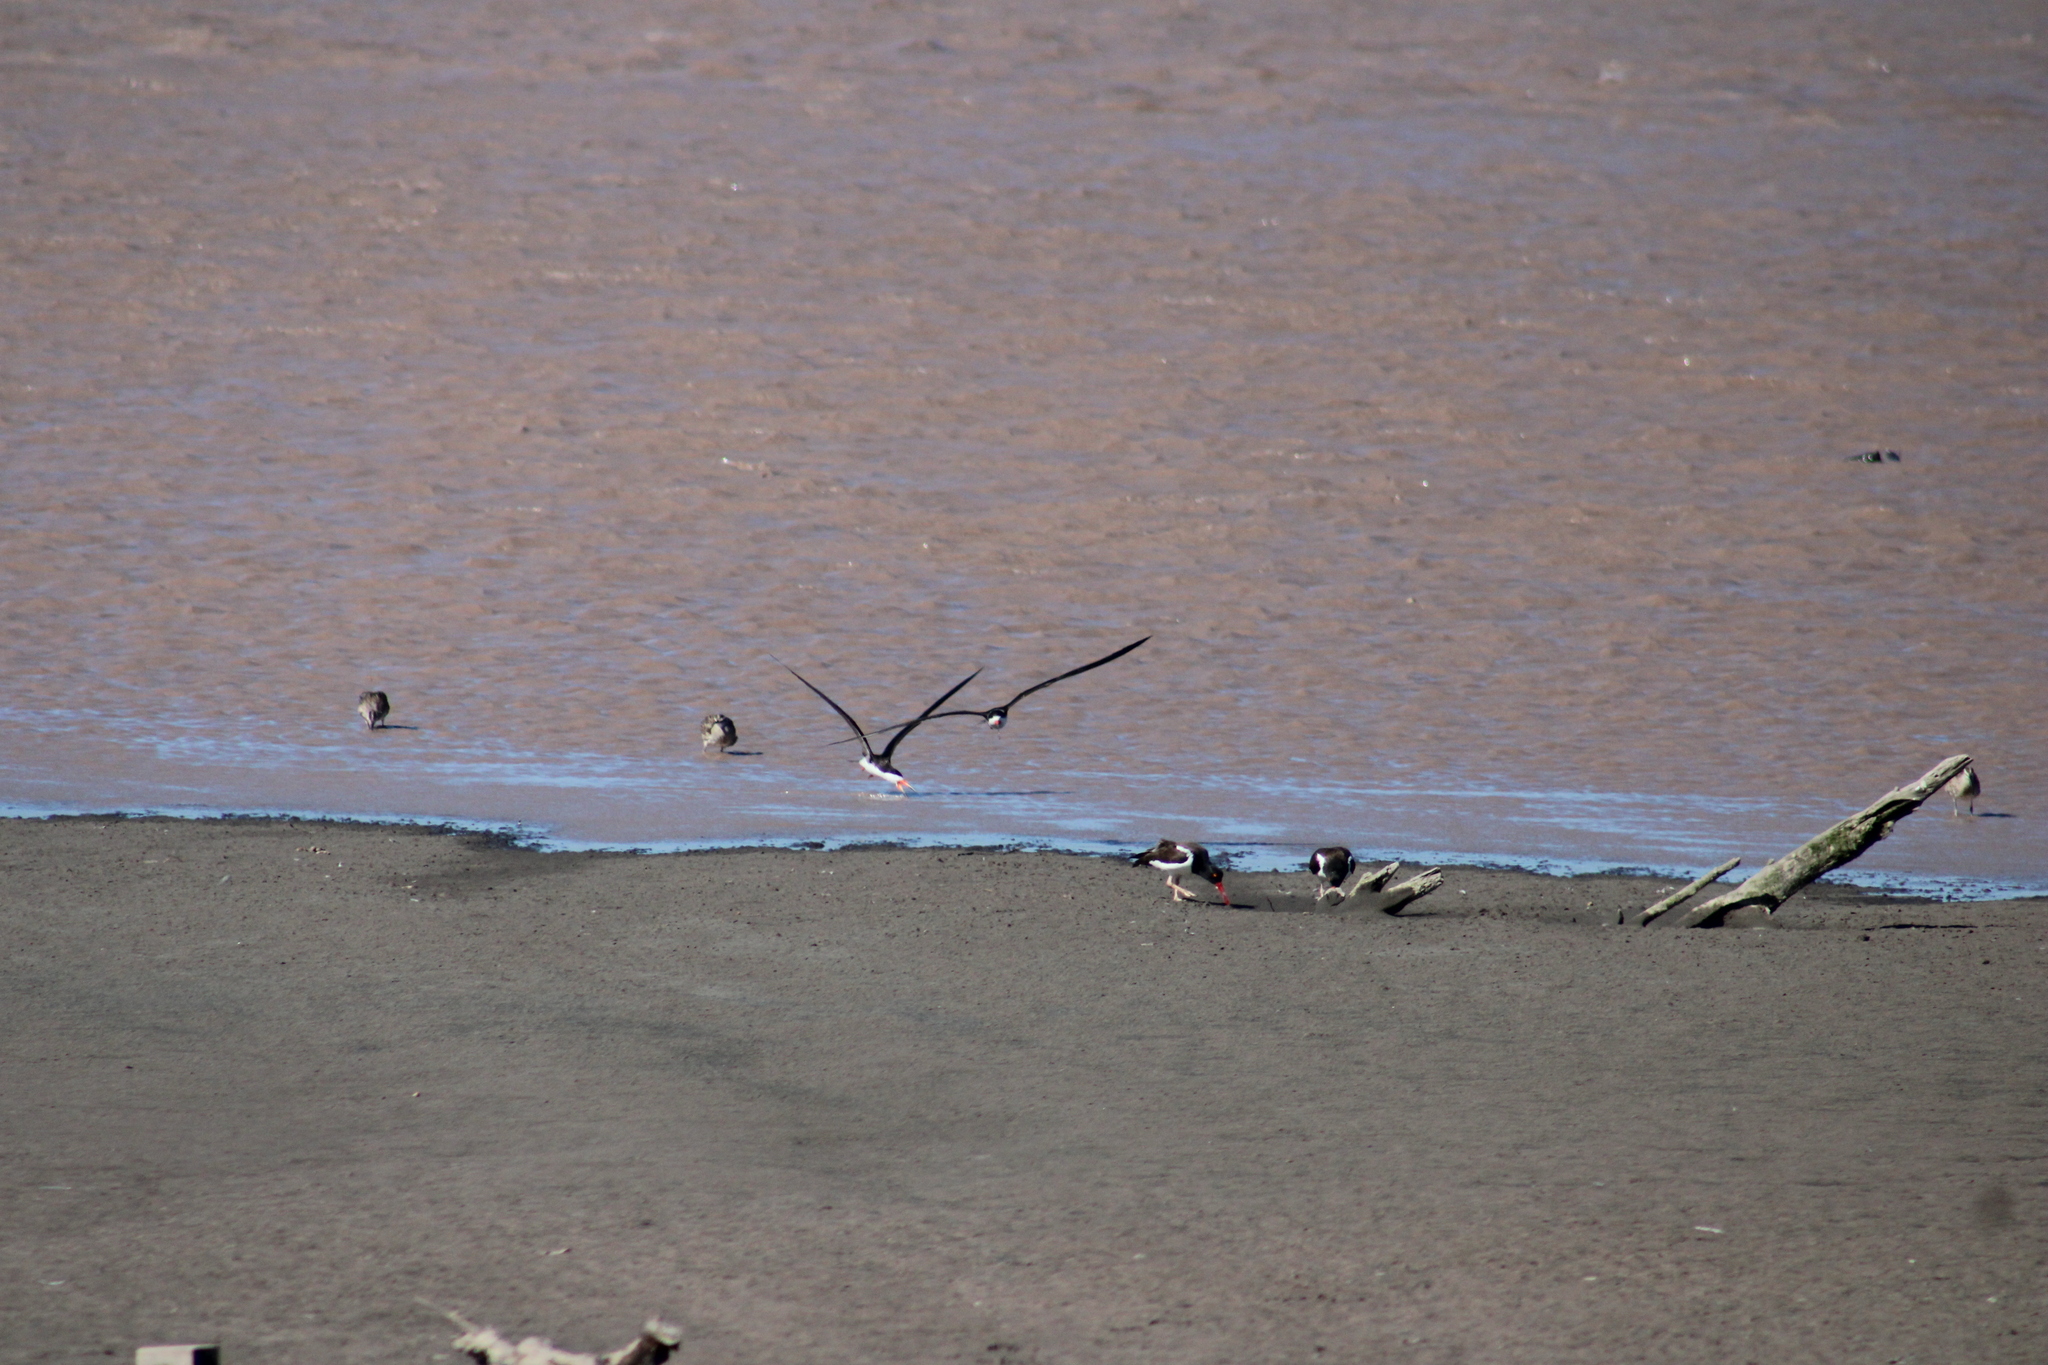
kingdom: Animalia
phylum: Chordata
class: Aves
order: Charadriiformes
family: Laridae
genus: Rynchops
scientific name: Rynchops niger
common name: Black skimmer
